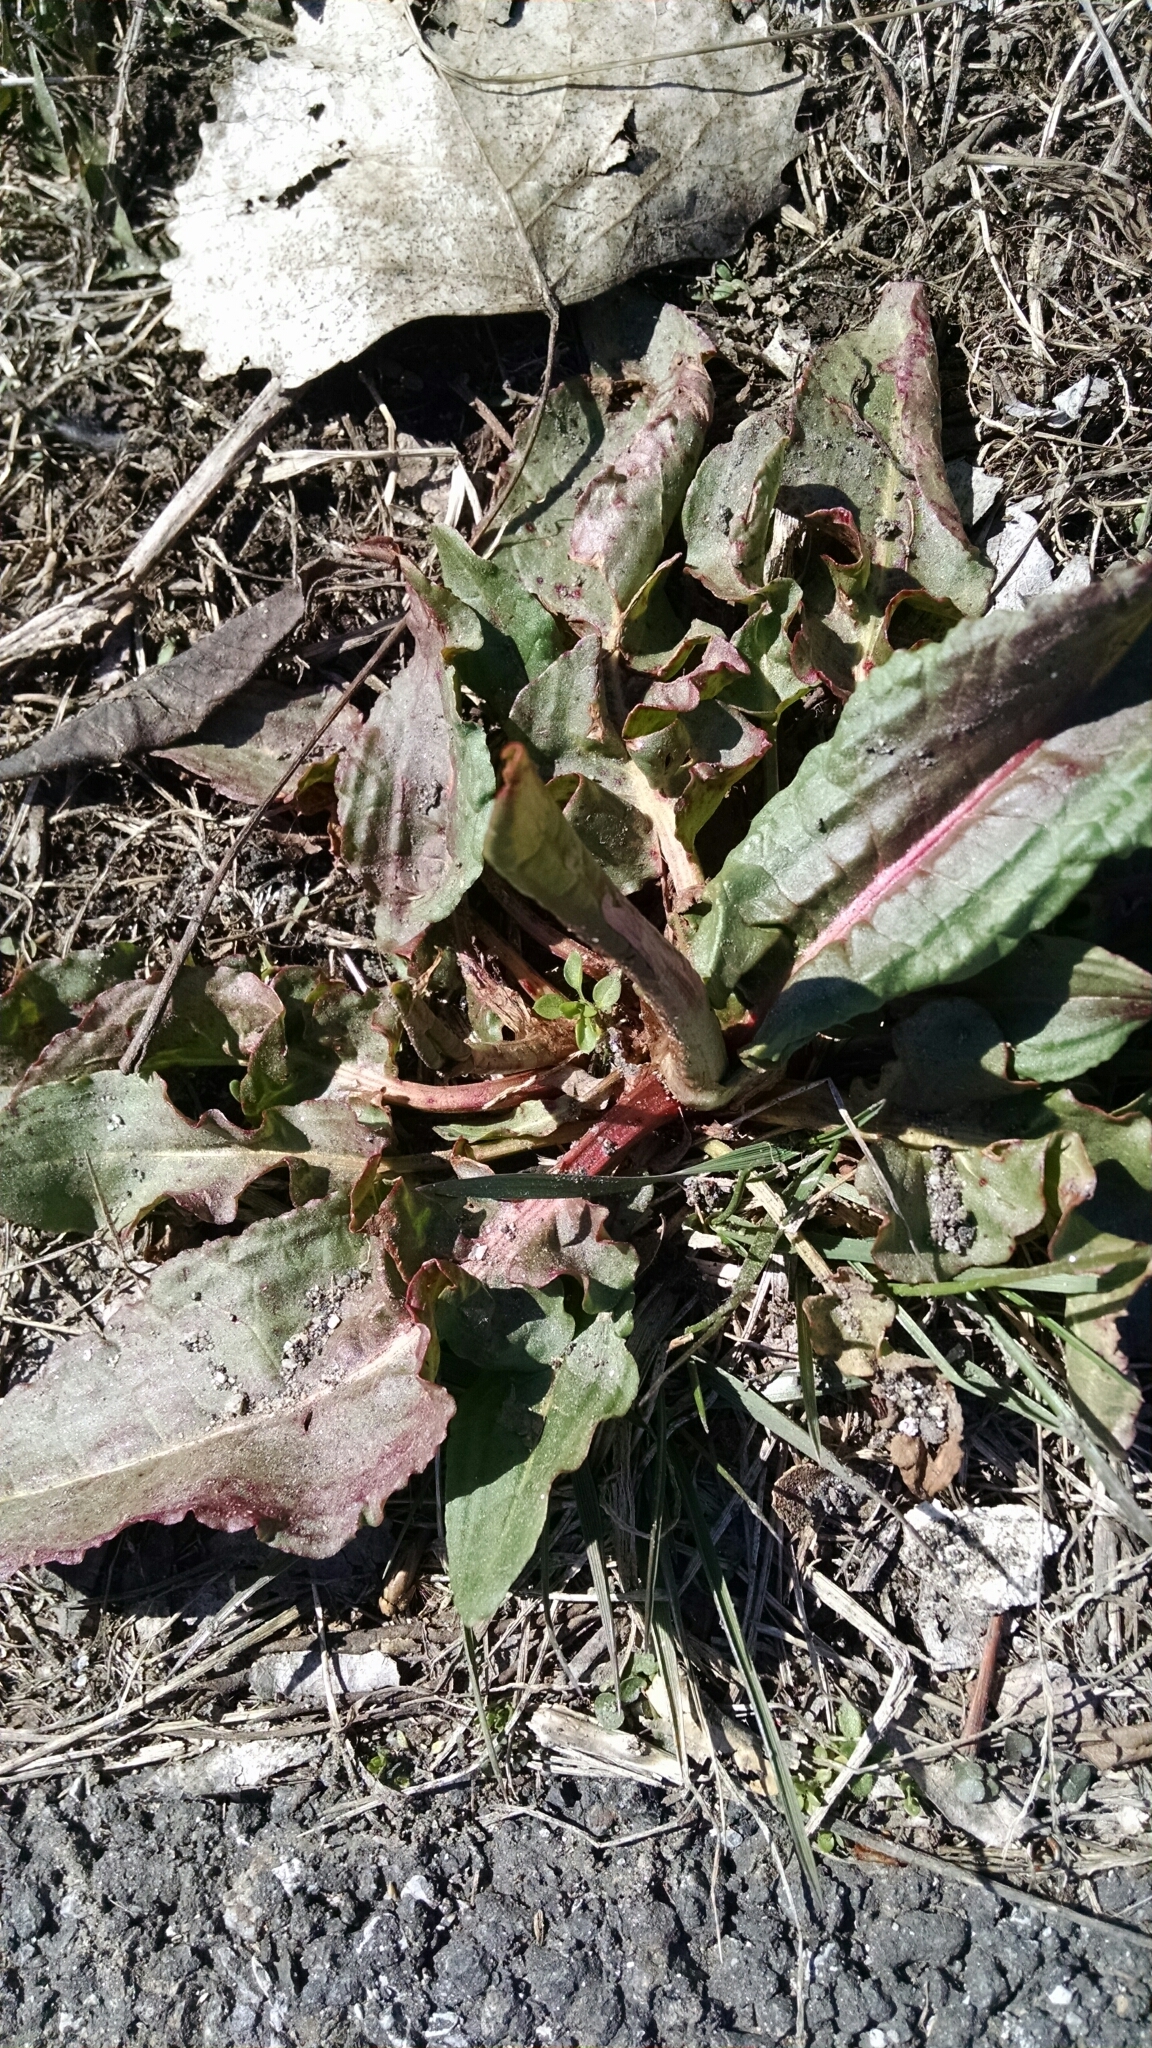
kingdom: Plantae
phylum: Tracheophyta
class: Magnoliopsida
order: Caryophyllales
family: Polygonaceae
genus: Rumex
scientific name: Rumex obtusifolius
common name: Bitter dock
